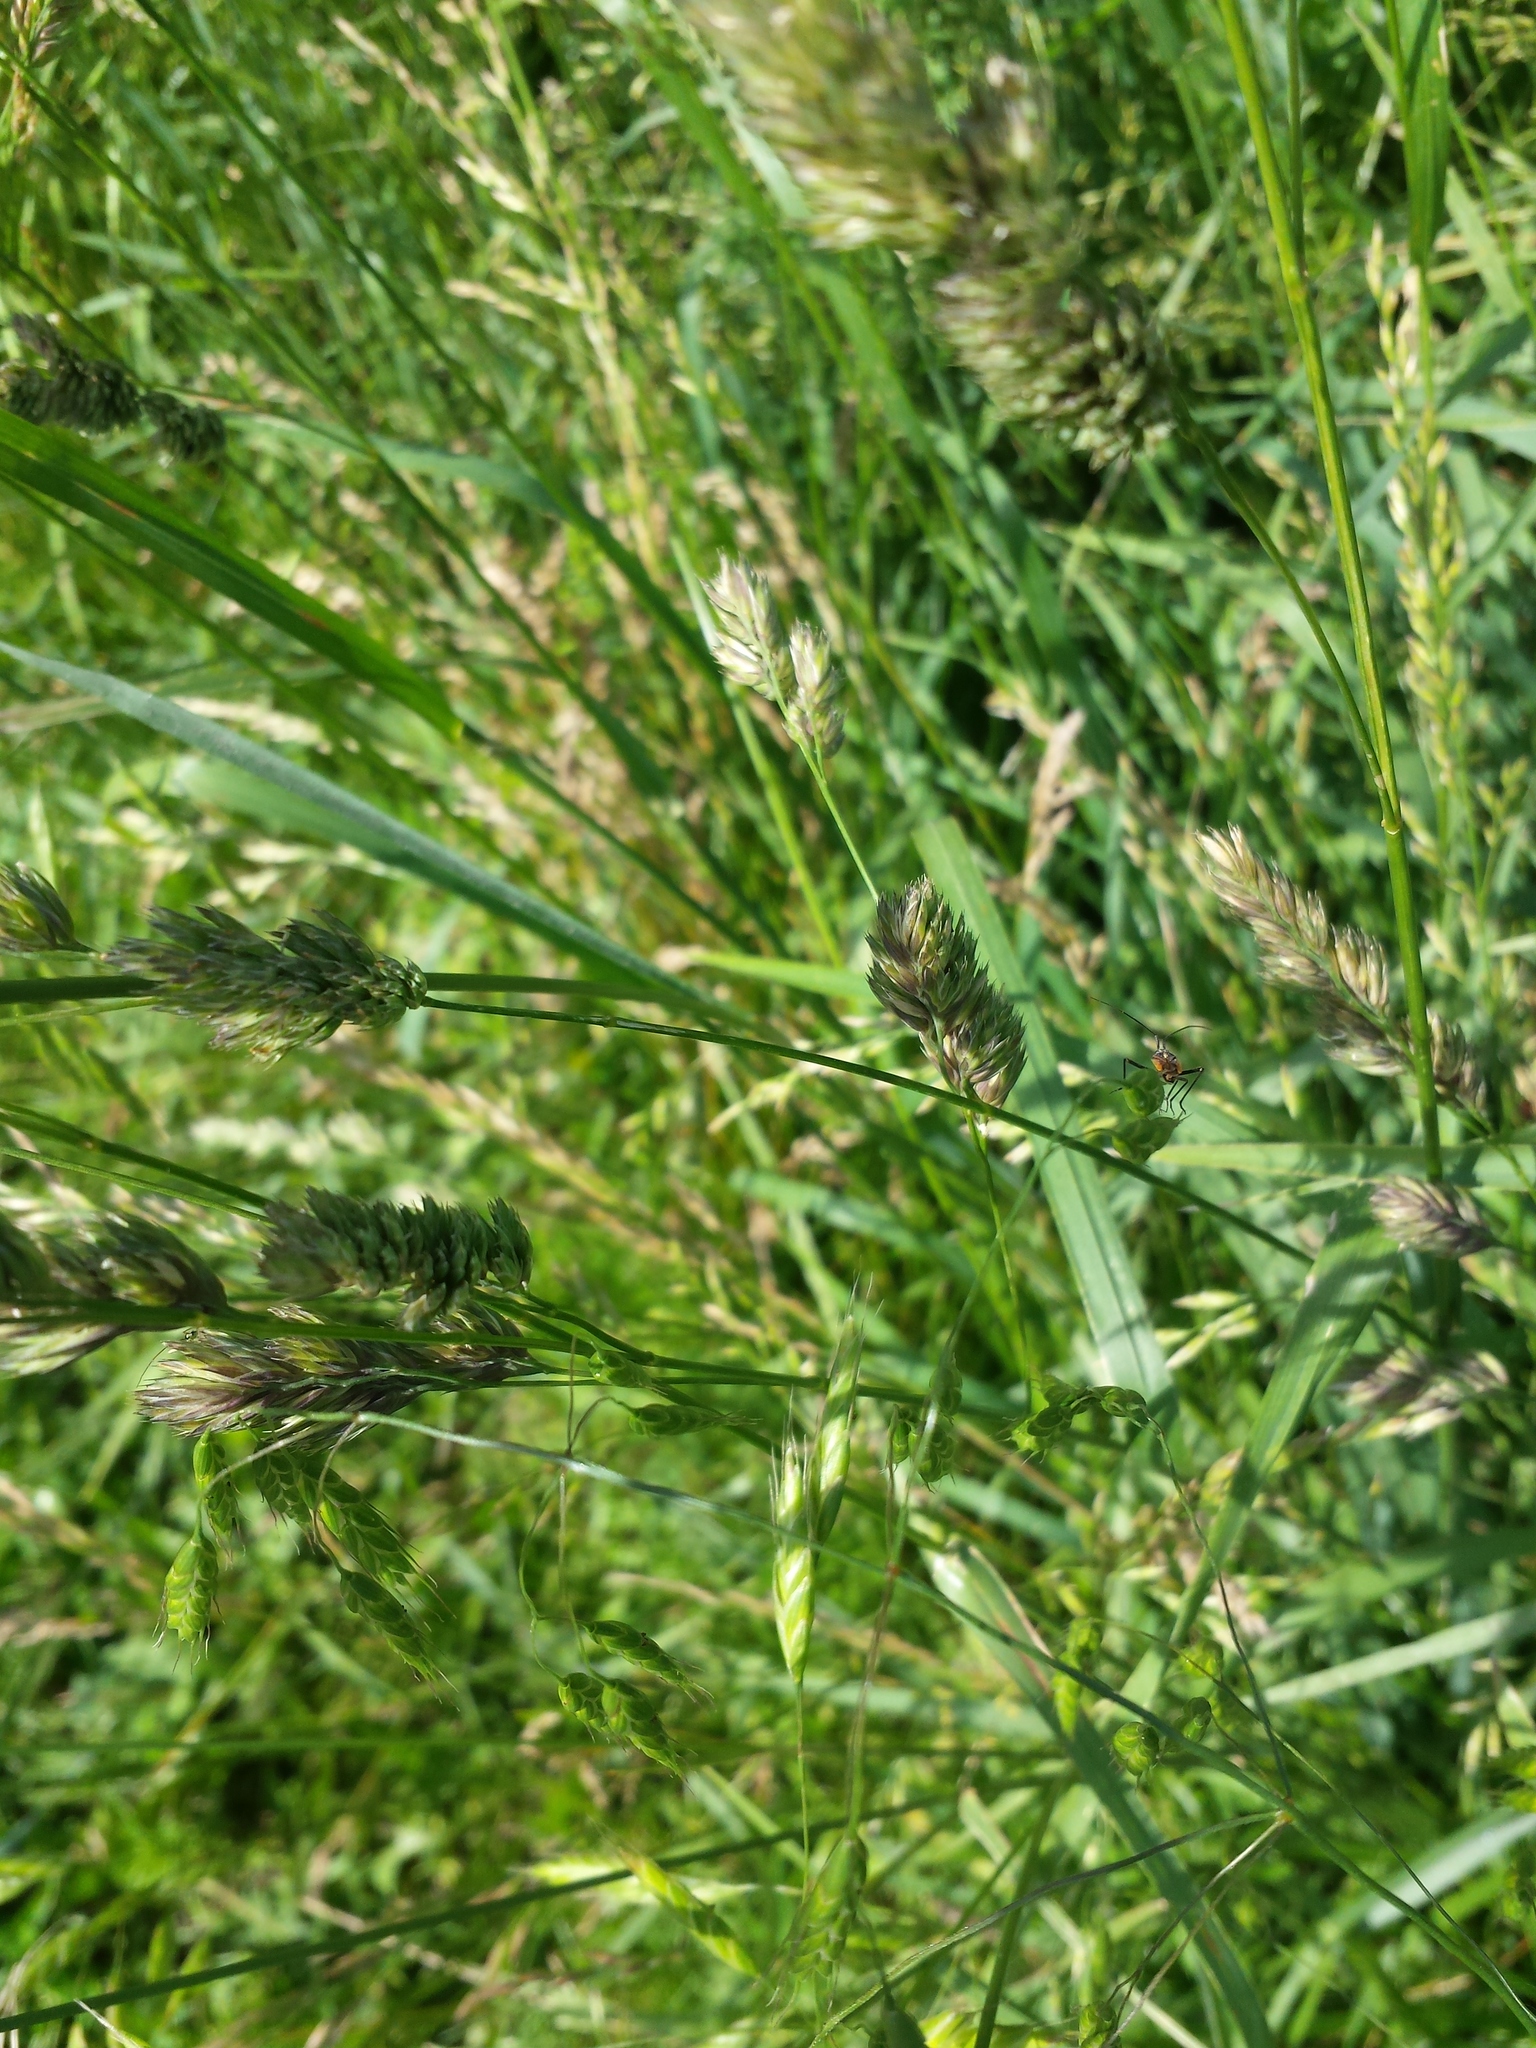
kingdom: Plantae
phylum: Tracheophyta
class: Liliopsida
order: Poales
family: Poaceae
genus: Dactylis
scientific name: Dactylis glomerata
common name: Orchardgrass
